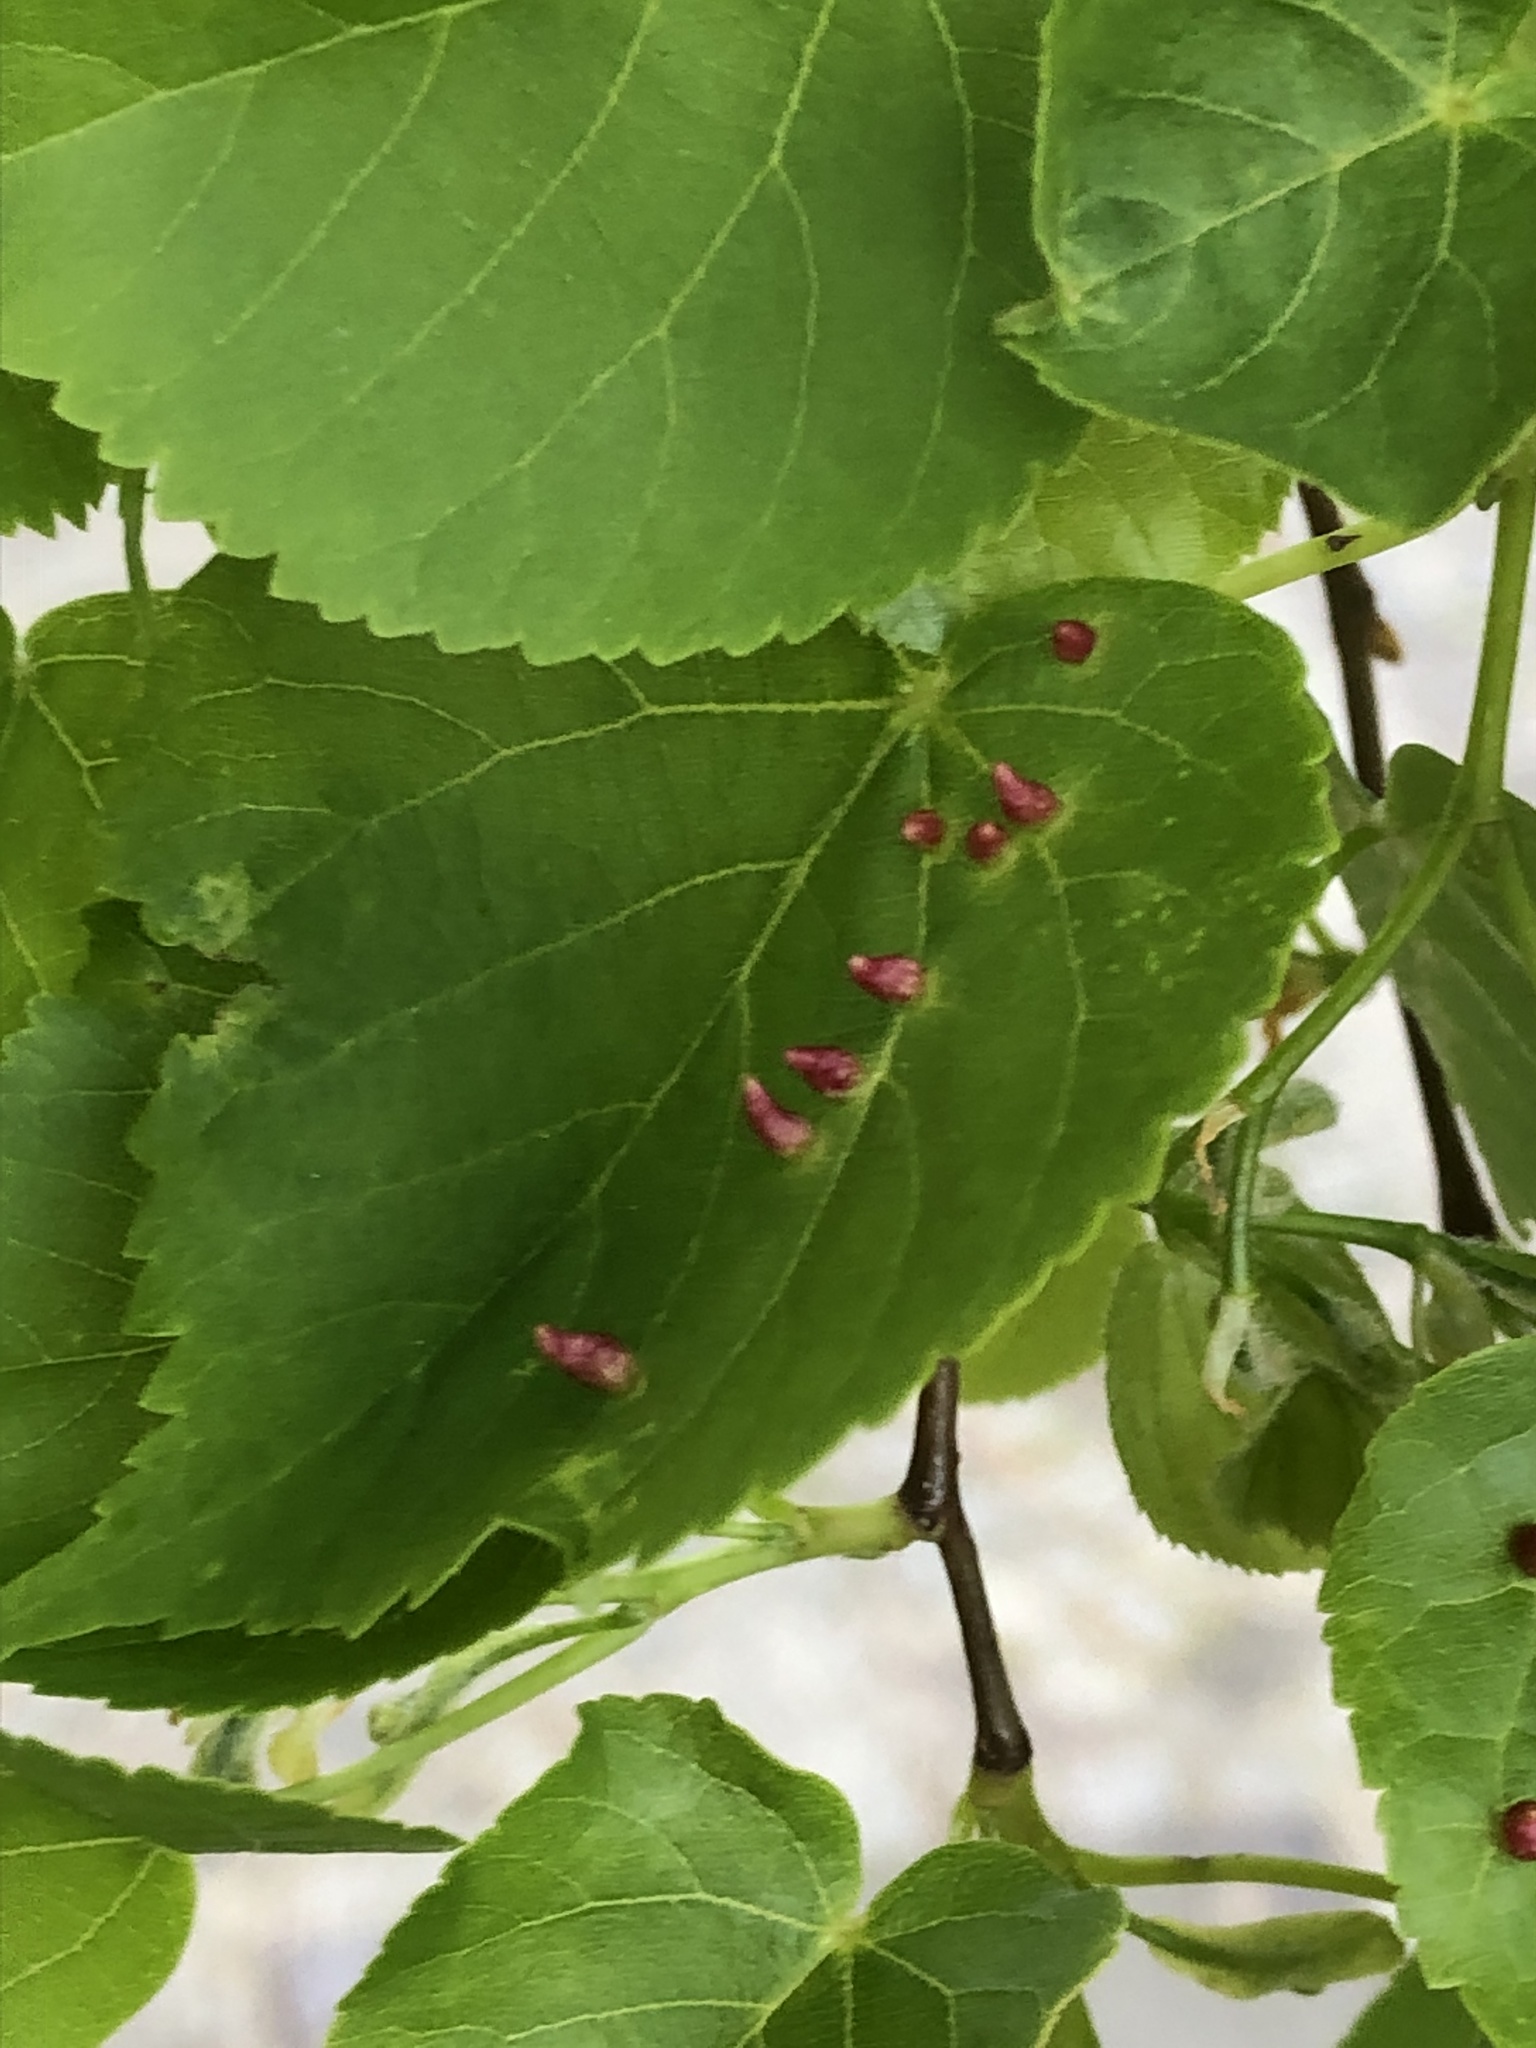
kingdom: Animalia
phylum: Arthropoda
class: Arachnida
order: Trombidiformes
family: Eriophyidae
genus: Eriophyes
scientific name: Eriophyes tiliae
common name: Red nail gall mite
